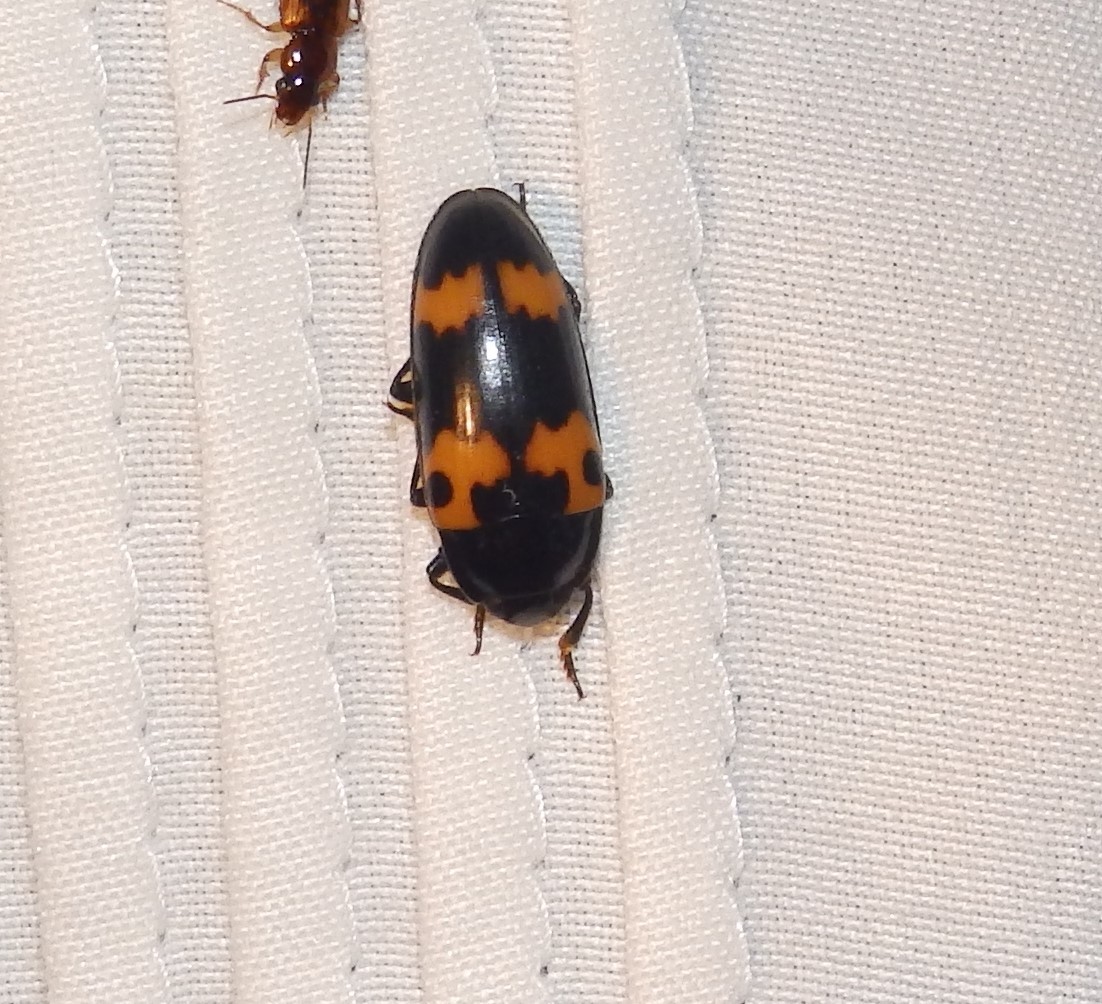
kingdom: Animalia
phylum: Arthropoda
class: Insecta
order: Coleoptera
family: Erotylidae
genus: Megalodacne
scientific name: Megalodacne fasciata
